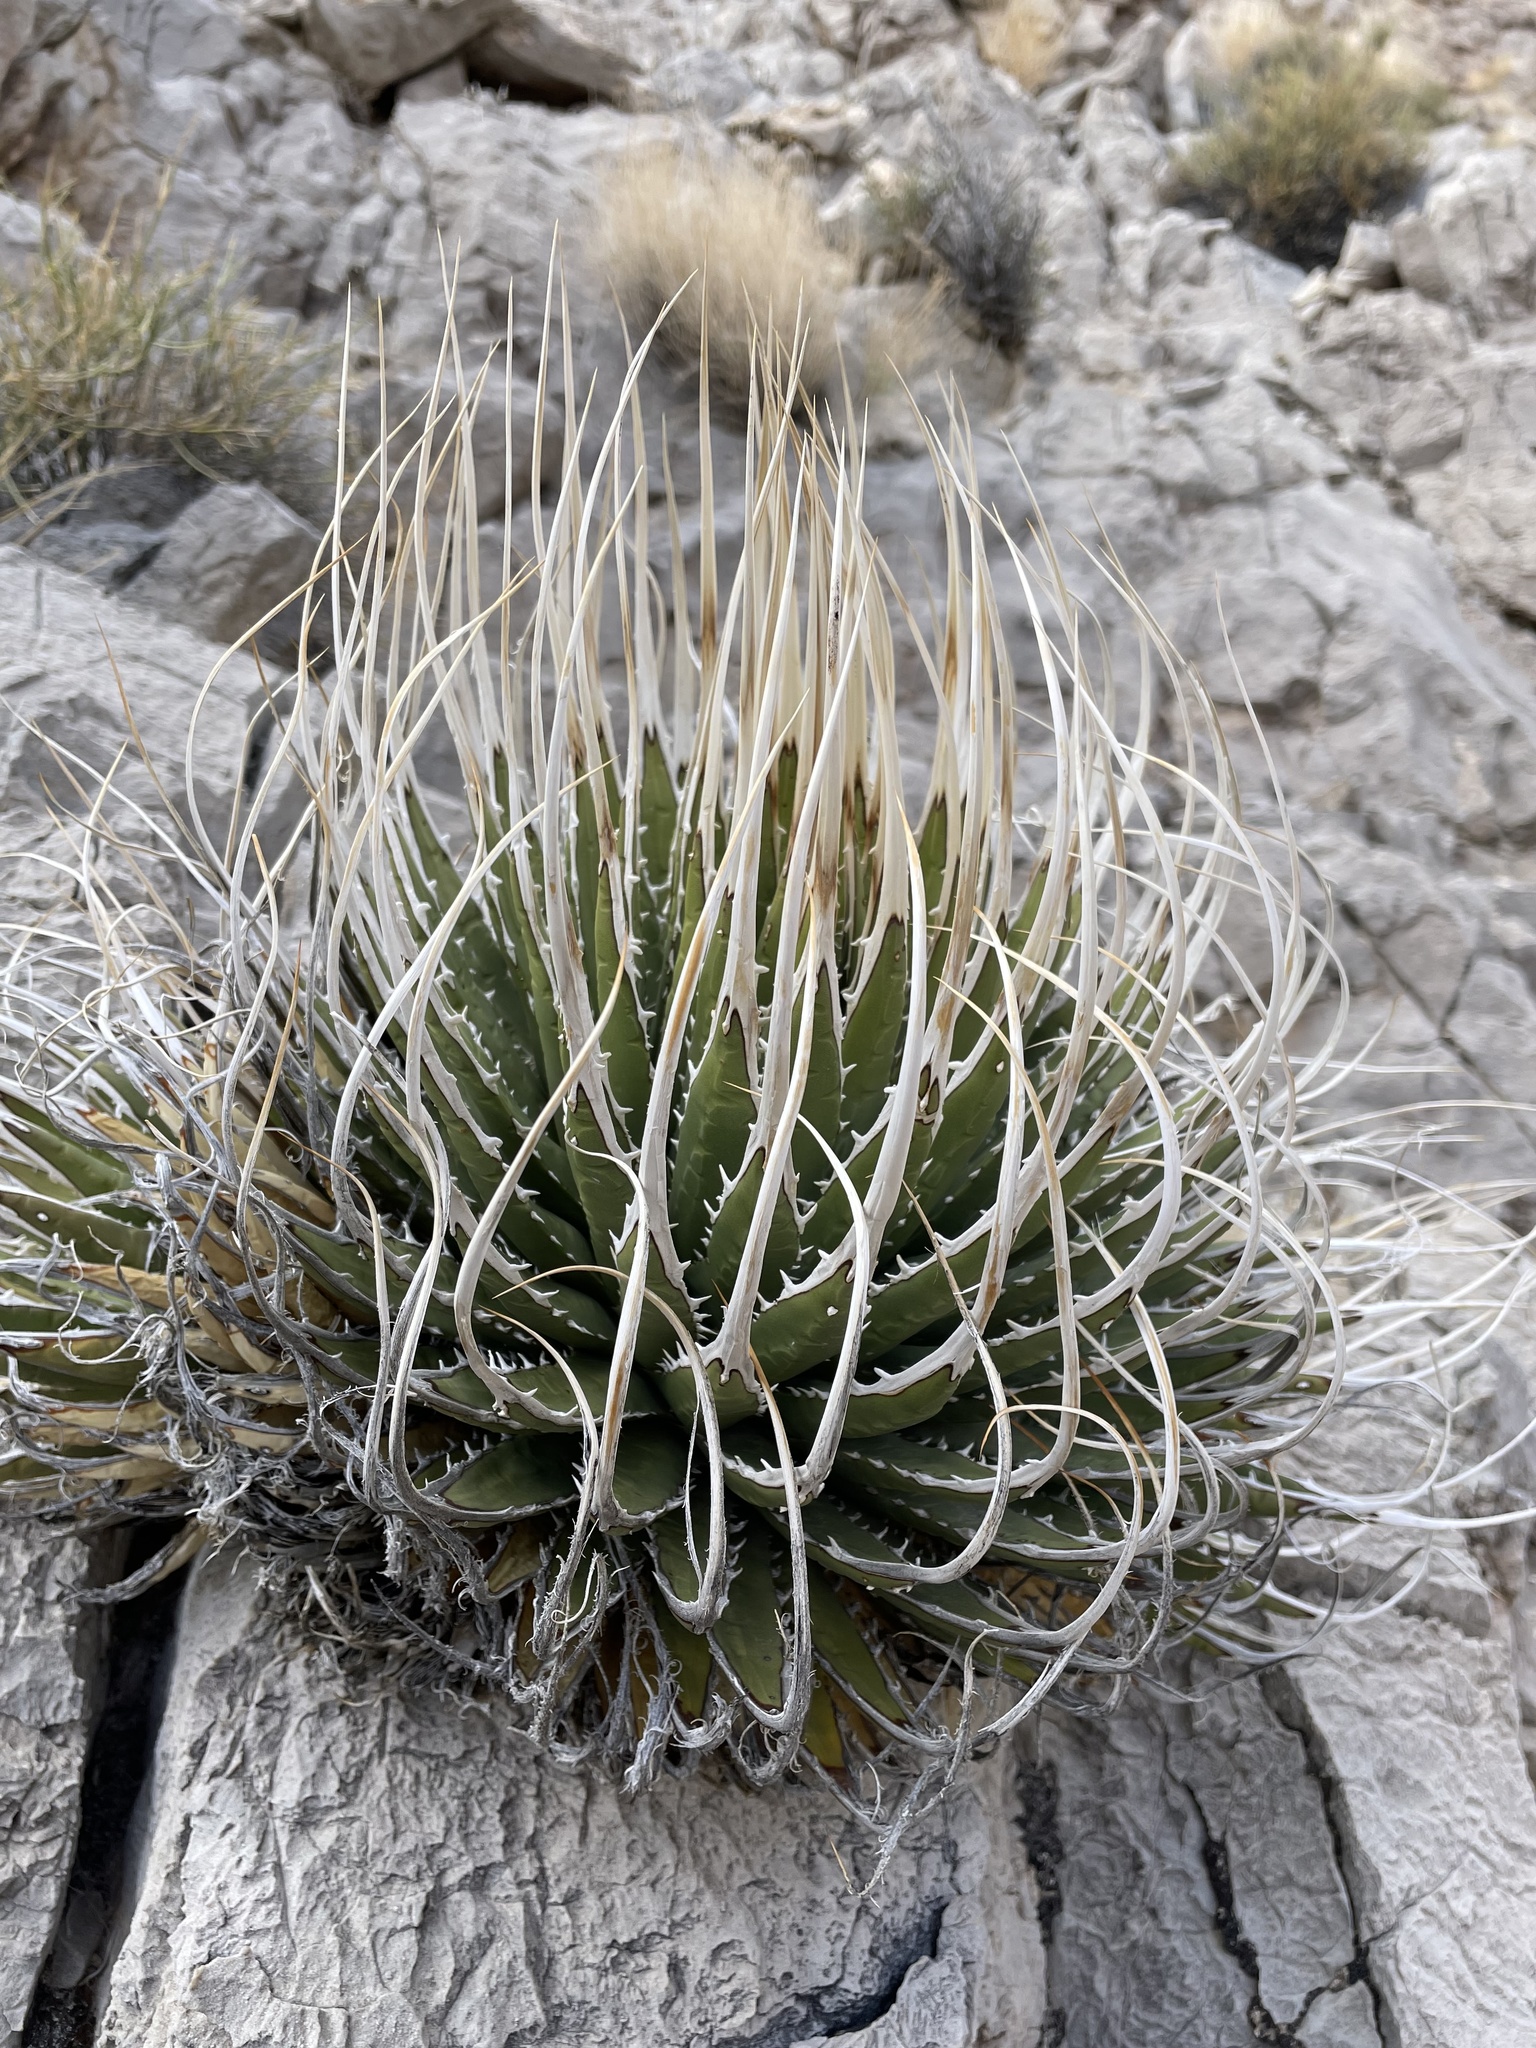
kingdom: Plantae
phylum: Tracheophyta
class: Liliopsida
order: Asparagales
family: Asparagaceae
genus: Agave
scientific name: Agave utahensis
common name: Utah agave
